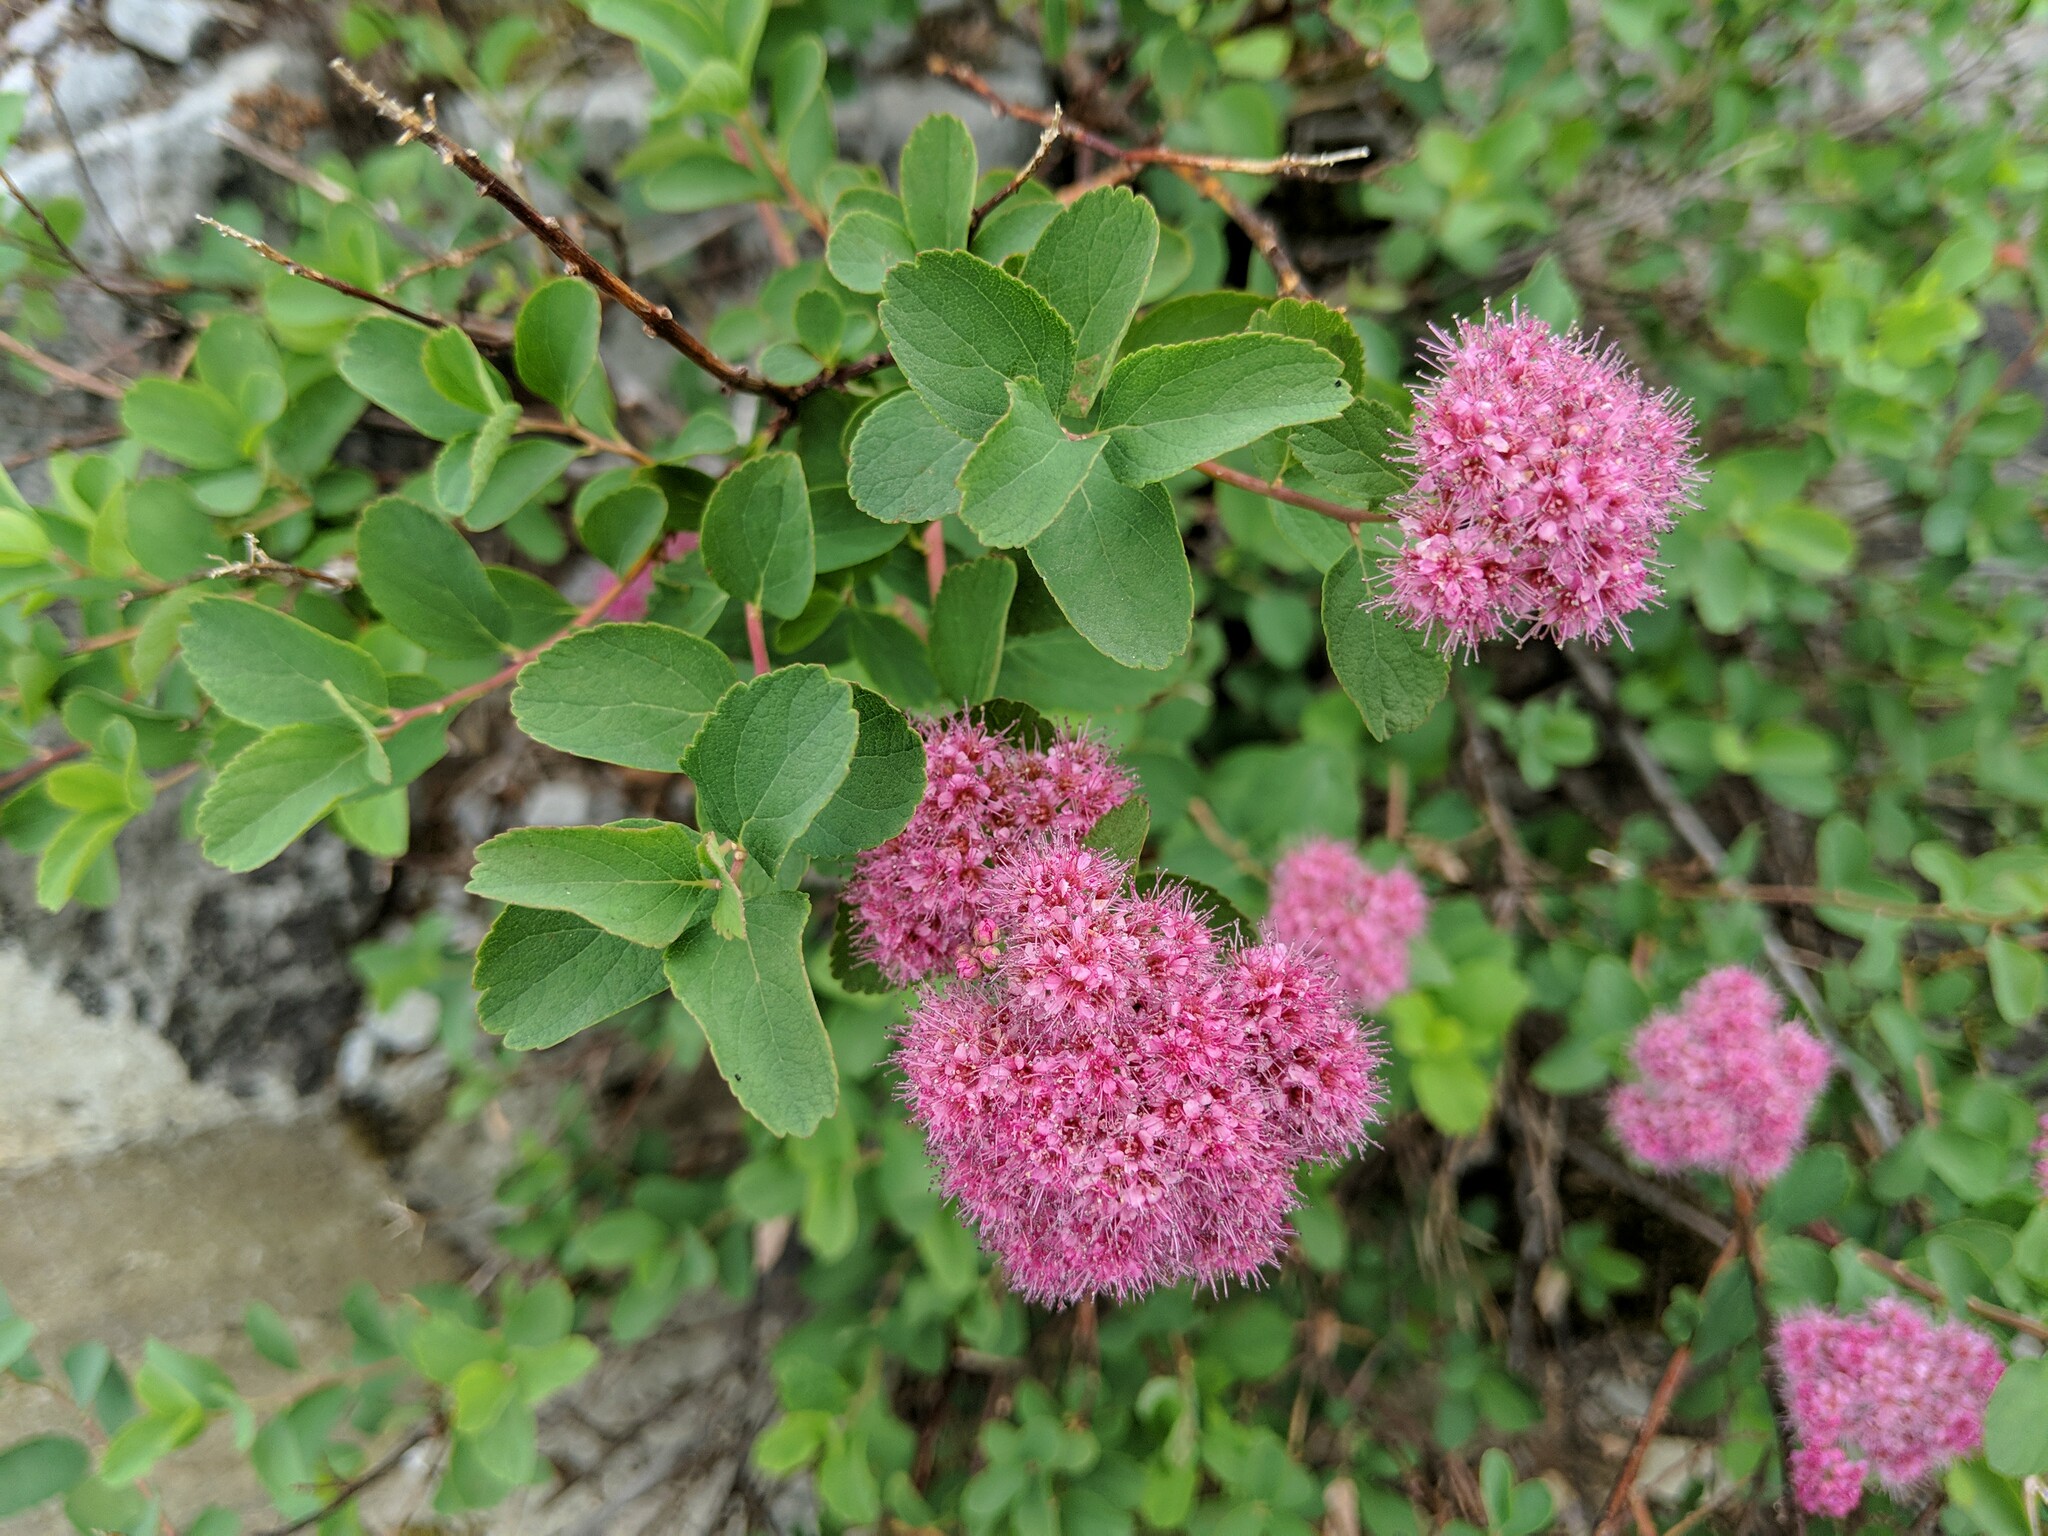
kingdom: Plantae
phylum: Tracheophyta
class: Magnoliopsida
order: Rosales
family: Rosaceae
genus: Spiraea
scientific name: Spiraea splendens
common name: Subalpine meadowsweet
